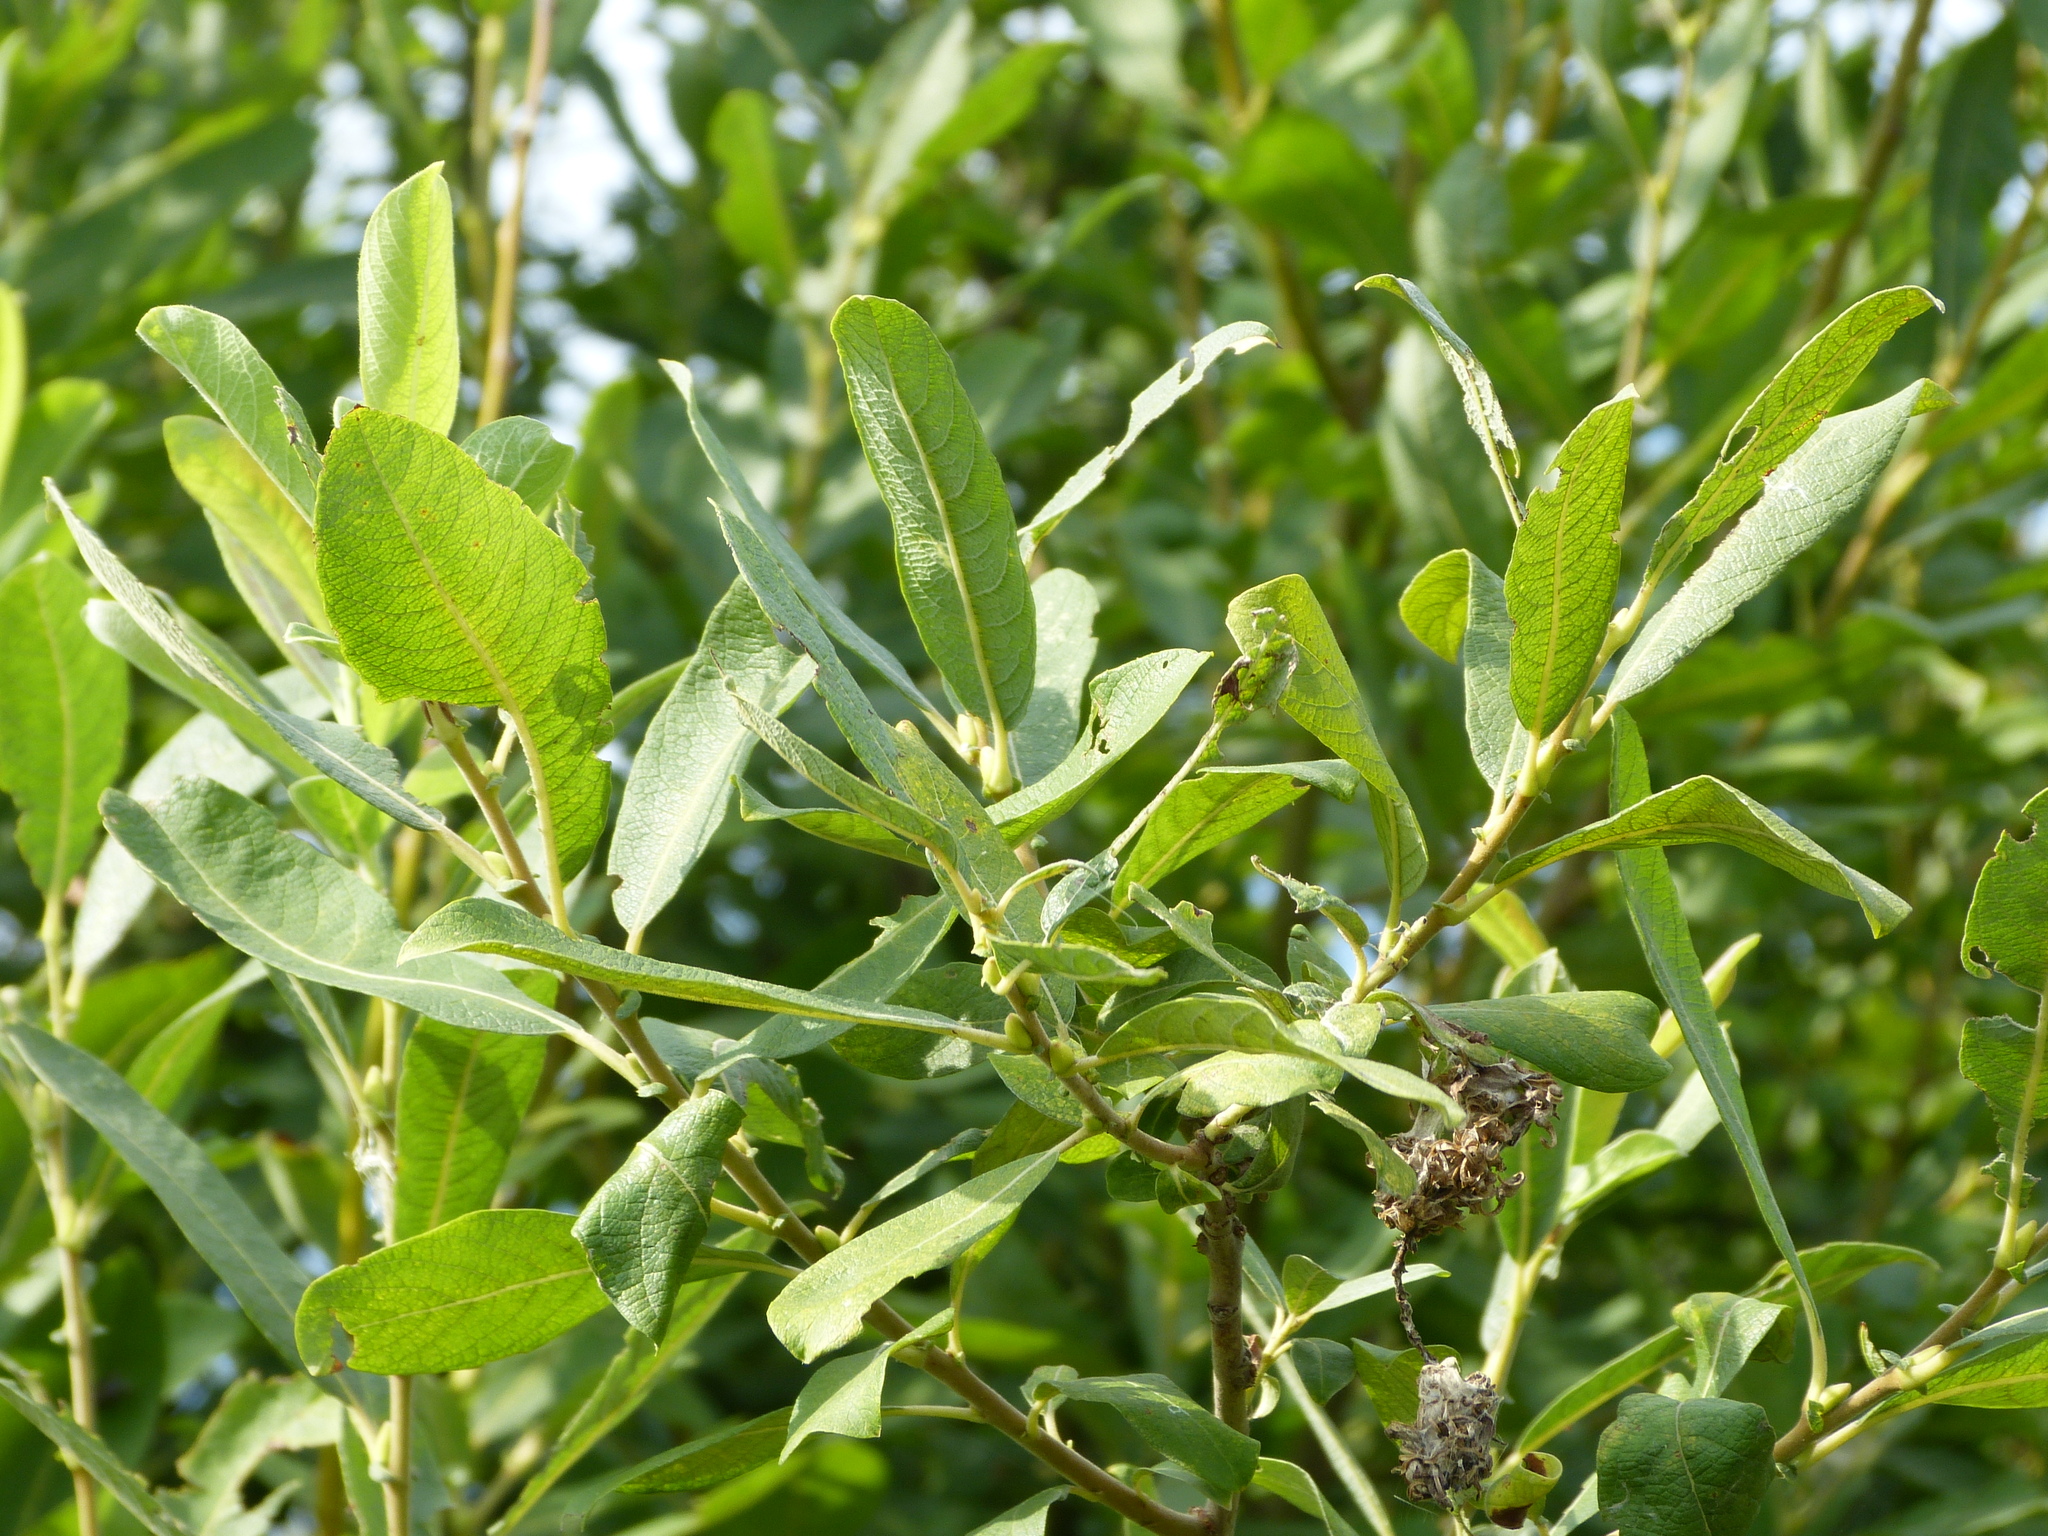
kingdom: Plantae
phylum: Tracheophyta
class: Magnoliopsida
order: Malpighiales
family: Salicaceae
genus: Salix
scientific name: Salix cinerea
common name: Common sallow
